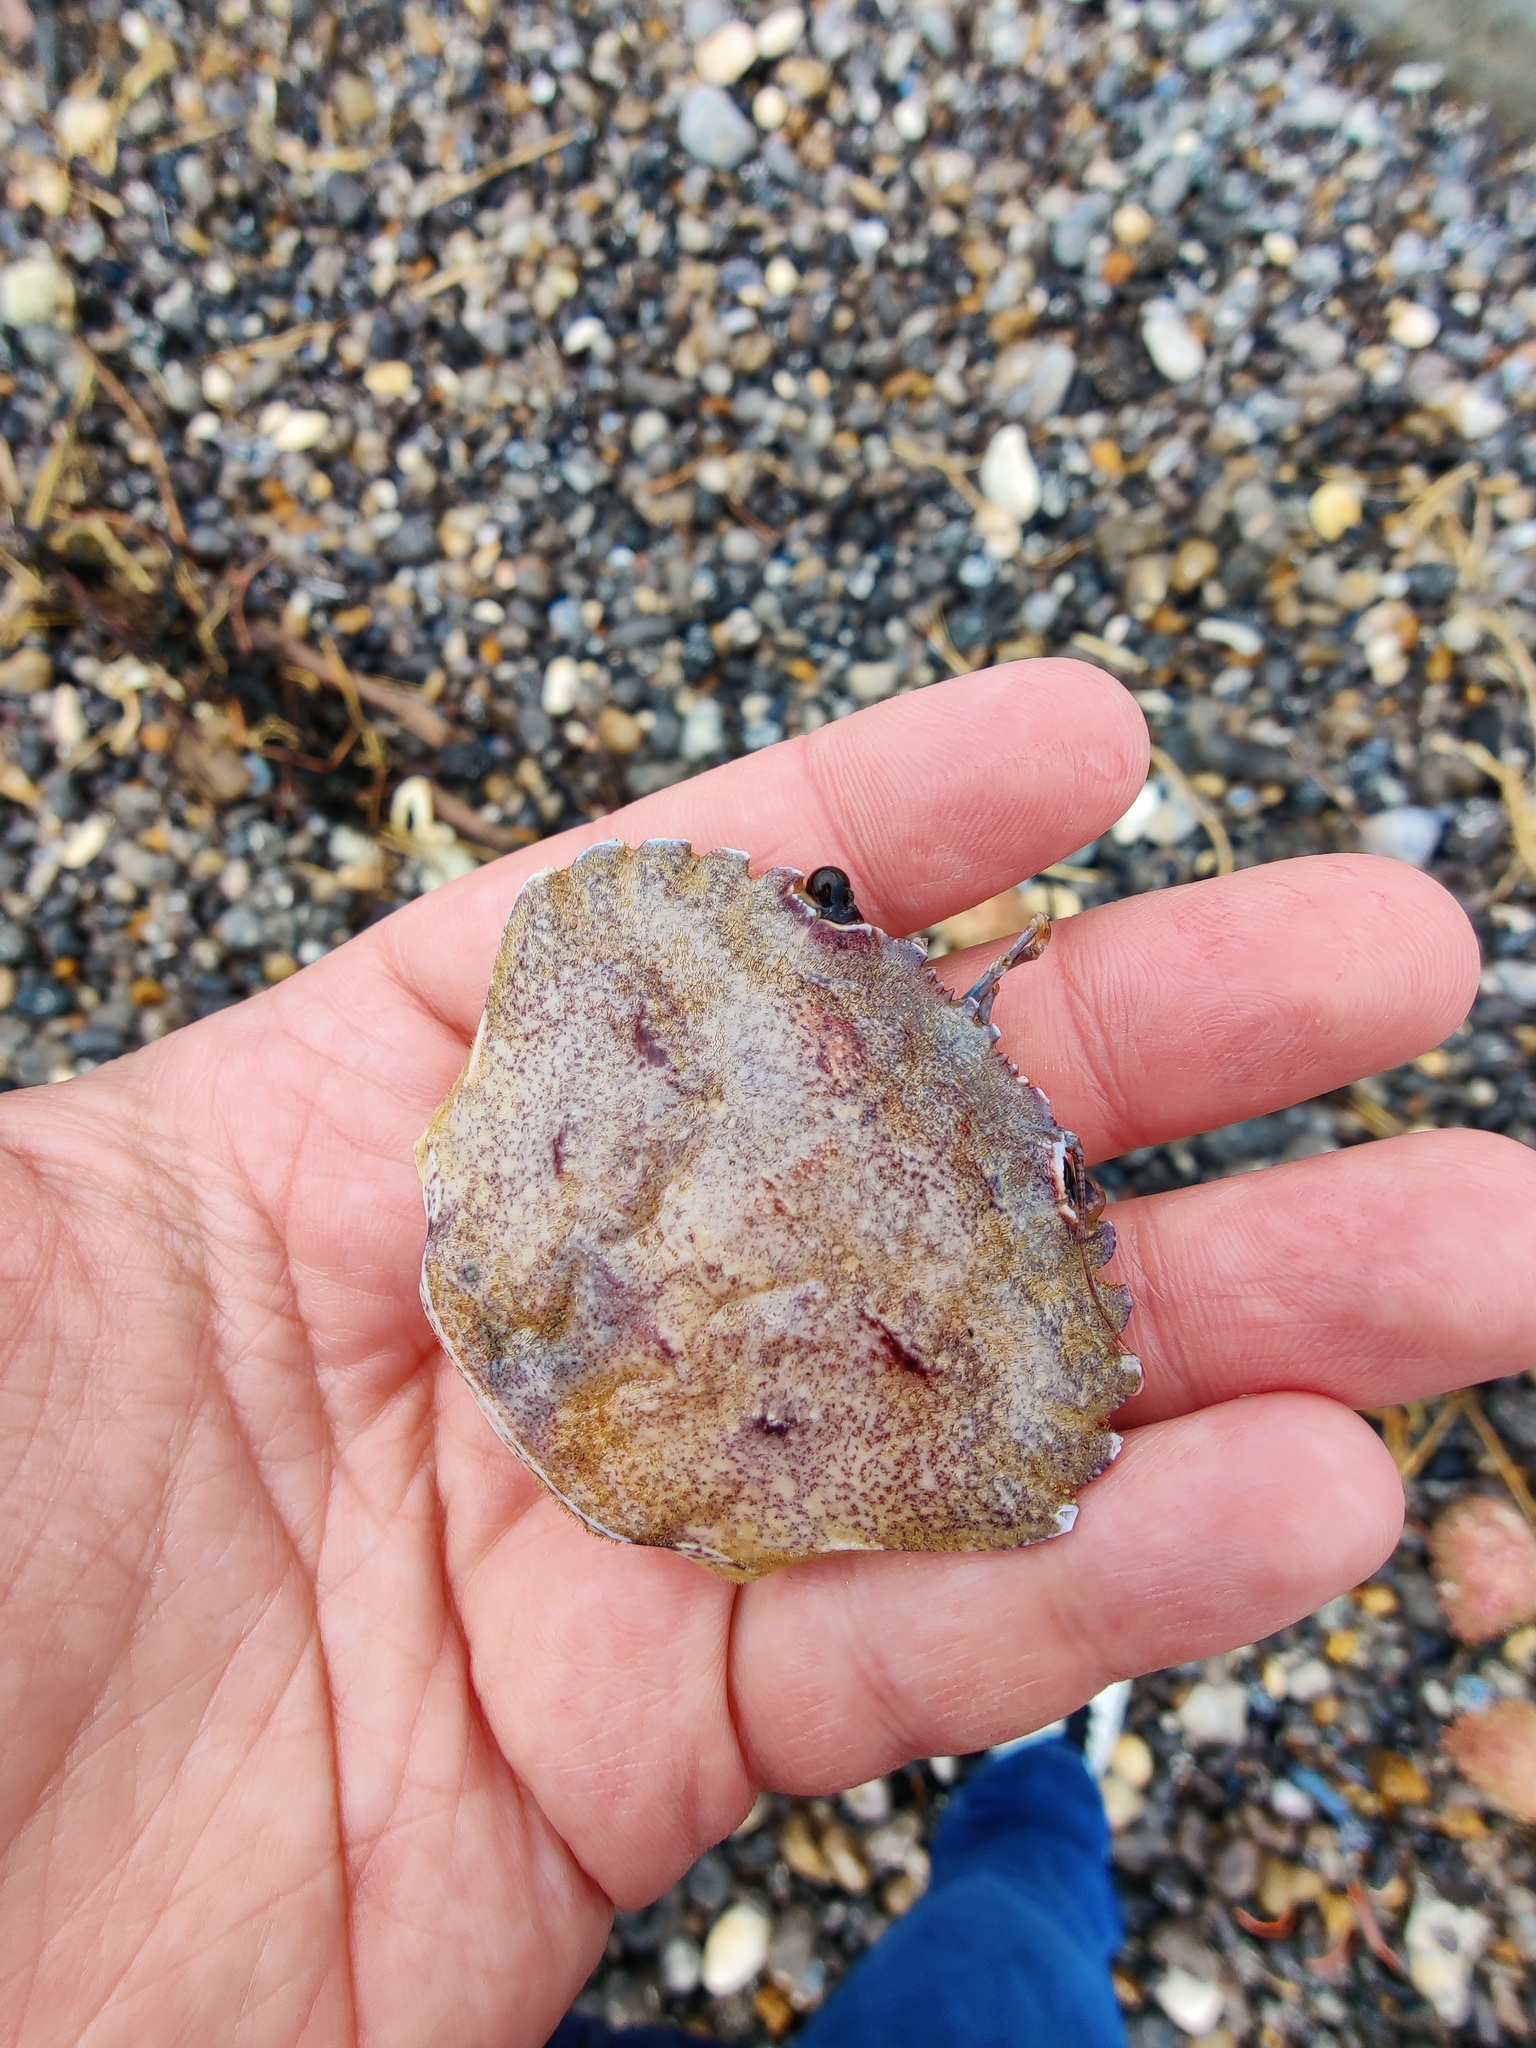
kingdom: Animalia
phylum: Arthropoda
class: Malacostraca
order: Decapoda
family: Polybiidae
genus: Necora
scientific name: Necora puber
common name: Velvet swimming crab
